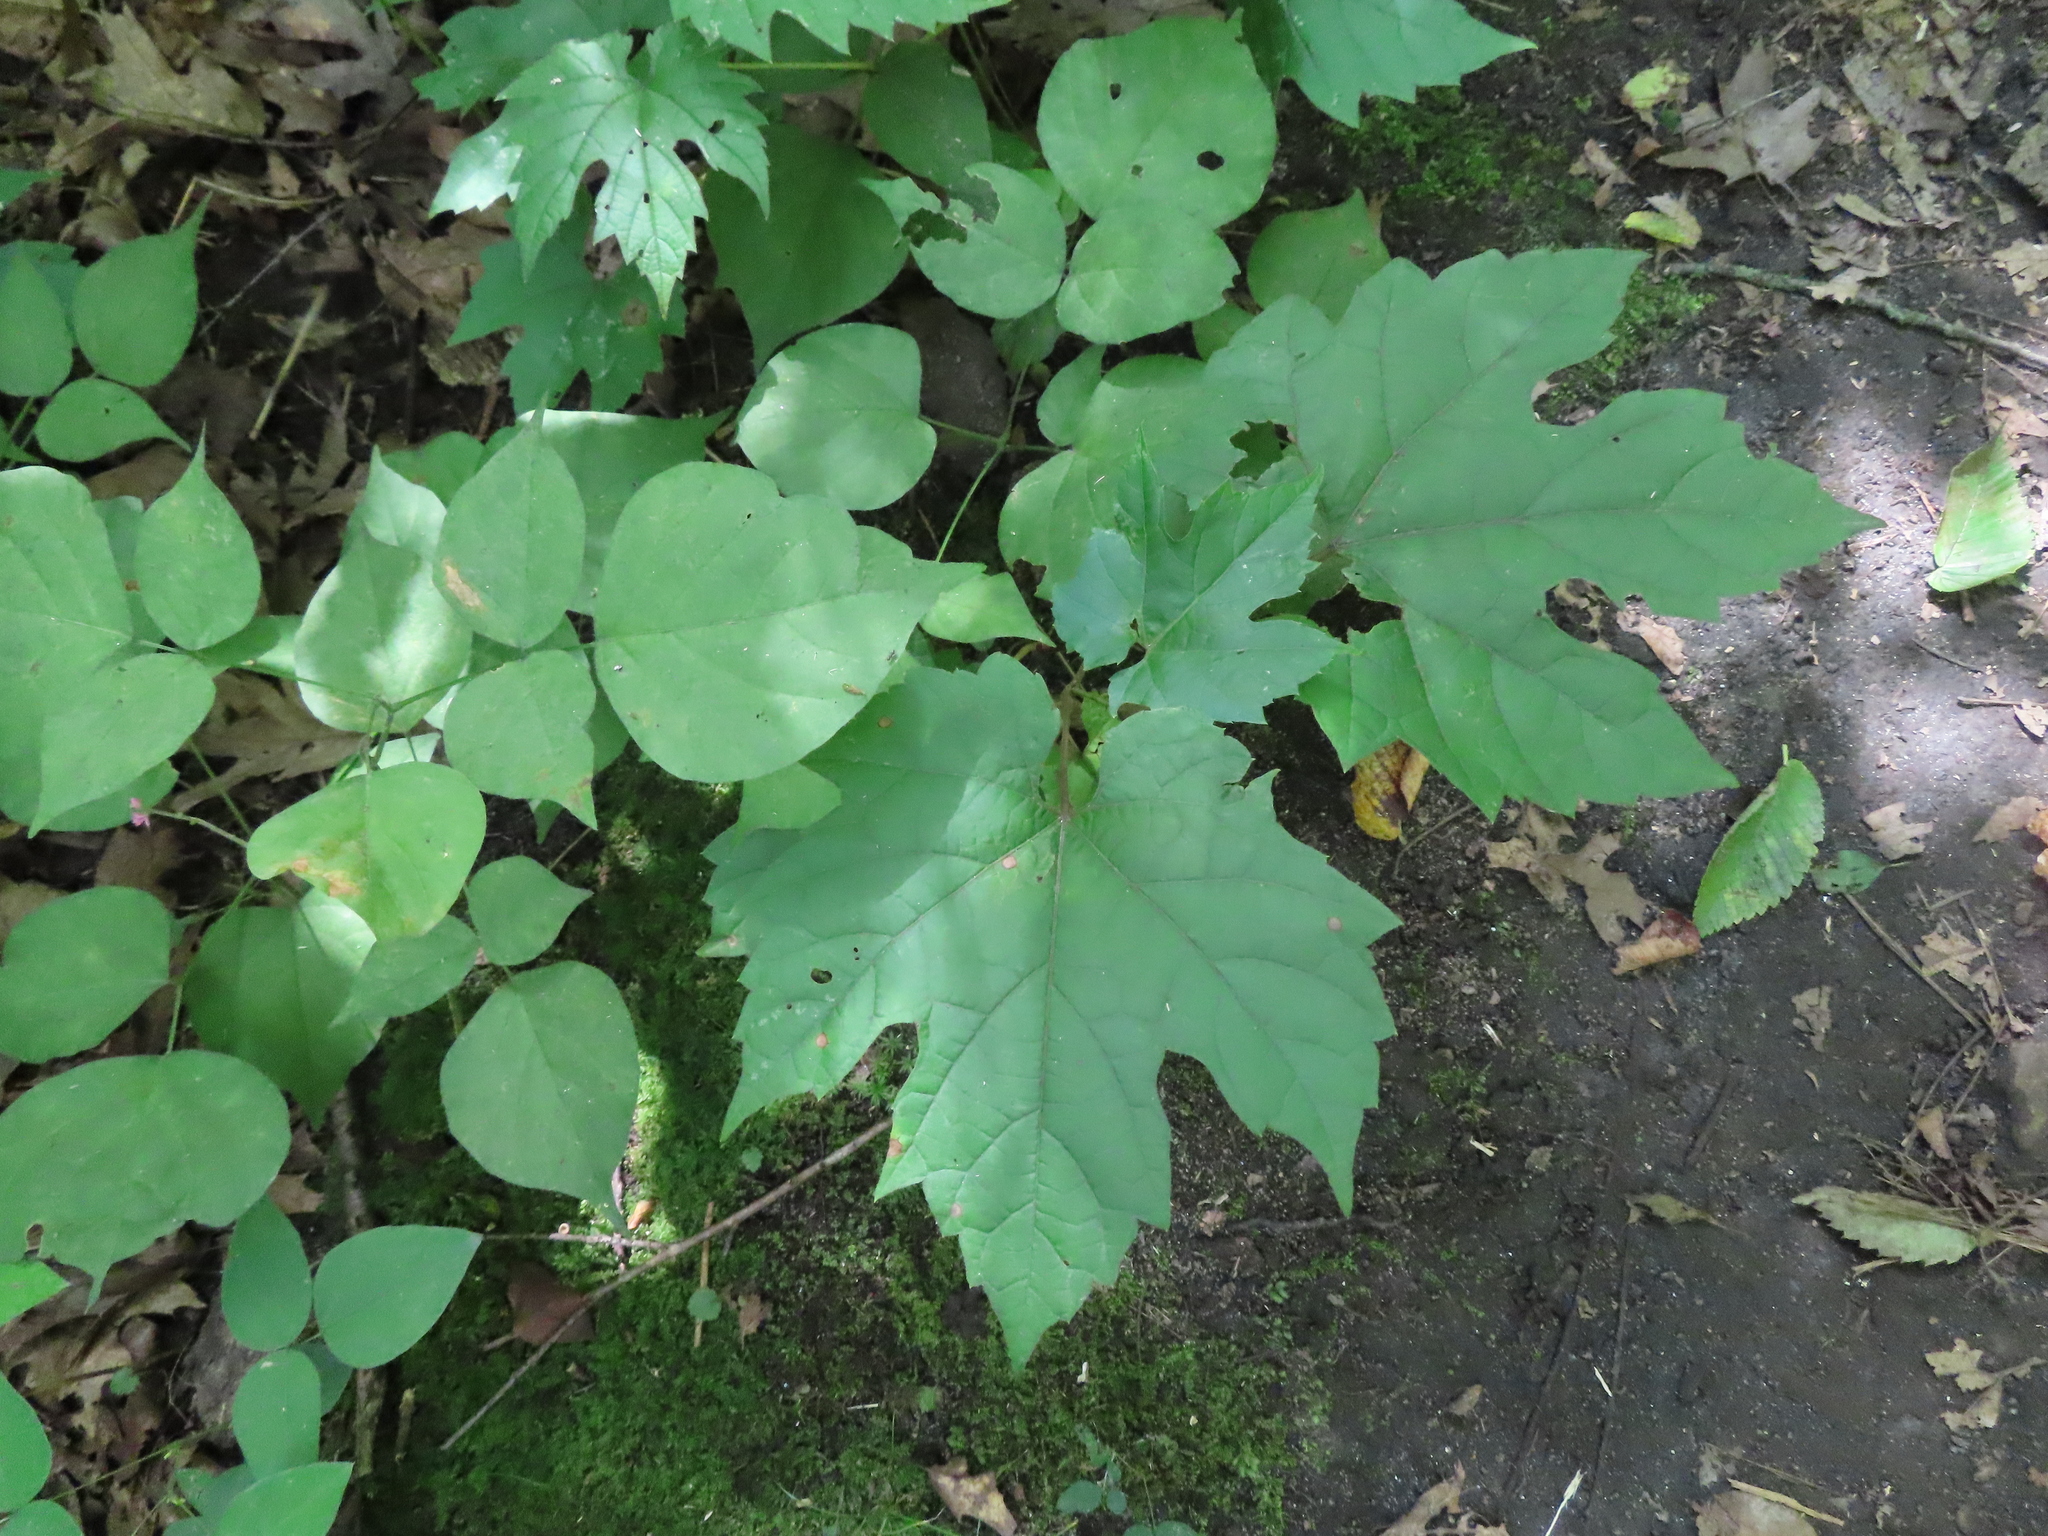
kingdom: Plantae
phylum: Tracheophyta
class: Magnoliopsida
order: Vitales
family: Vitaceae
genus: Vitis
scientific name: Vitis riparia
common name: Frost grape
